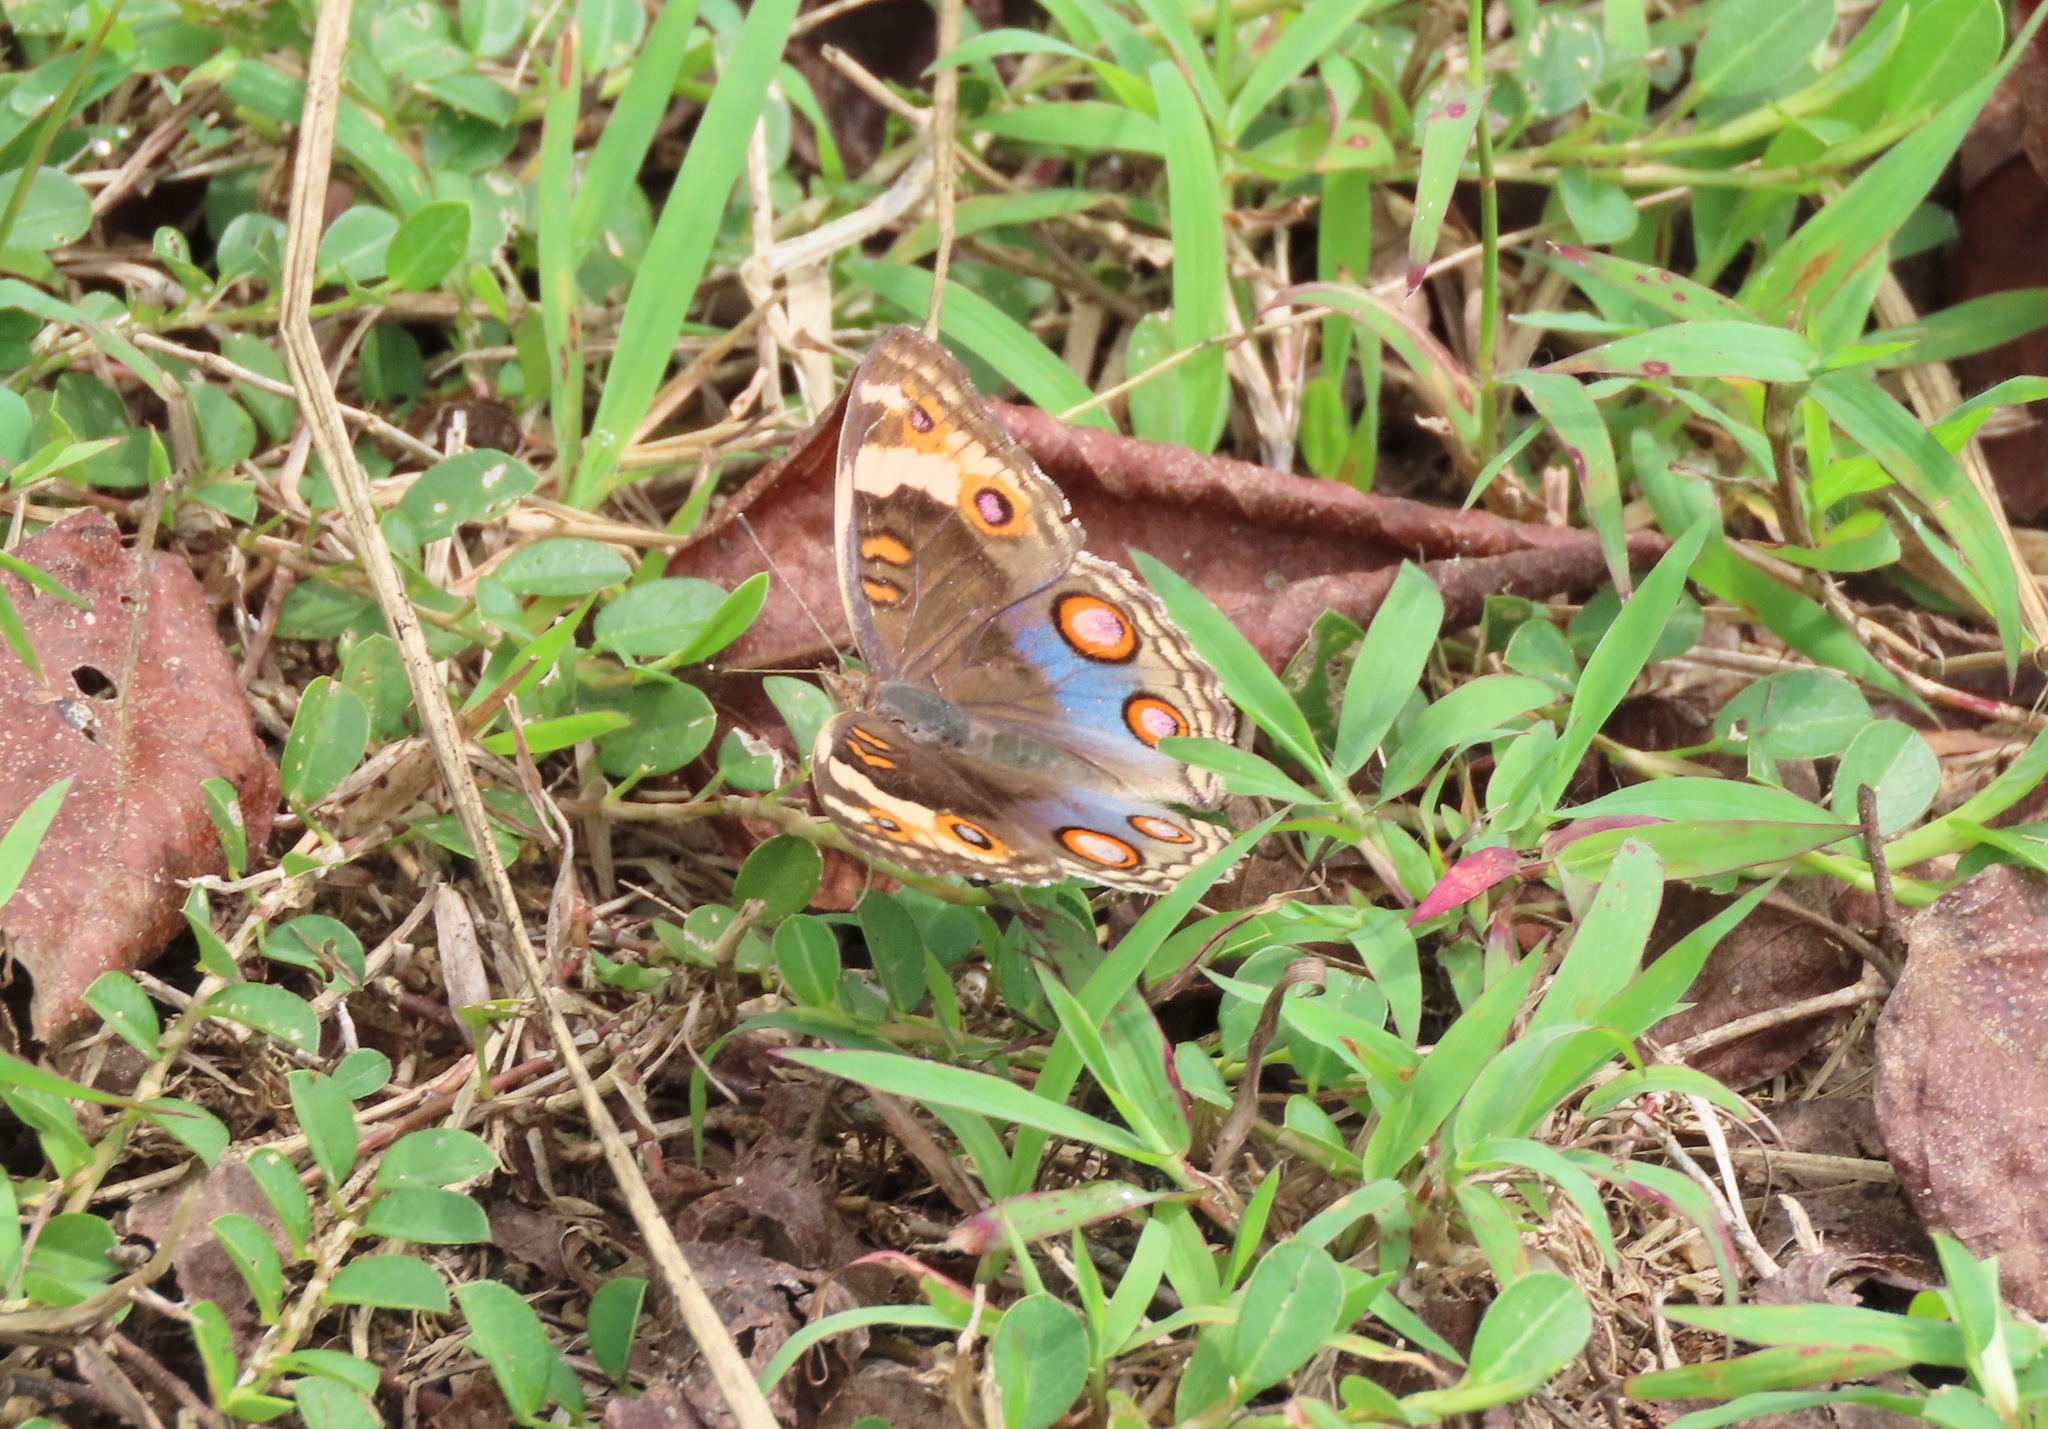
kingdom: Animalia
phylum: Arthropoda
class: Insecta
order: Lepidoptera
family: Nymphalidae
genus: Junonia
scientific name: Junonia orithya
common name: Blue pansy
